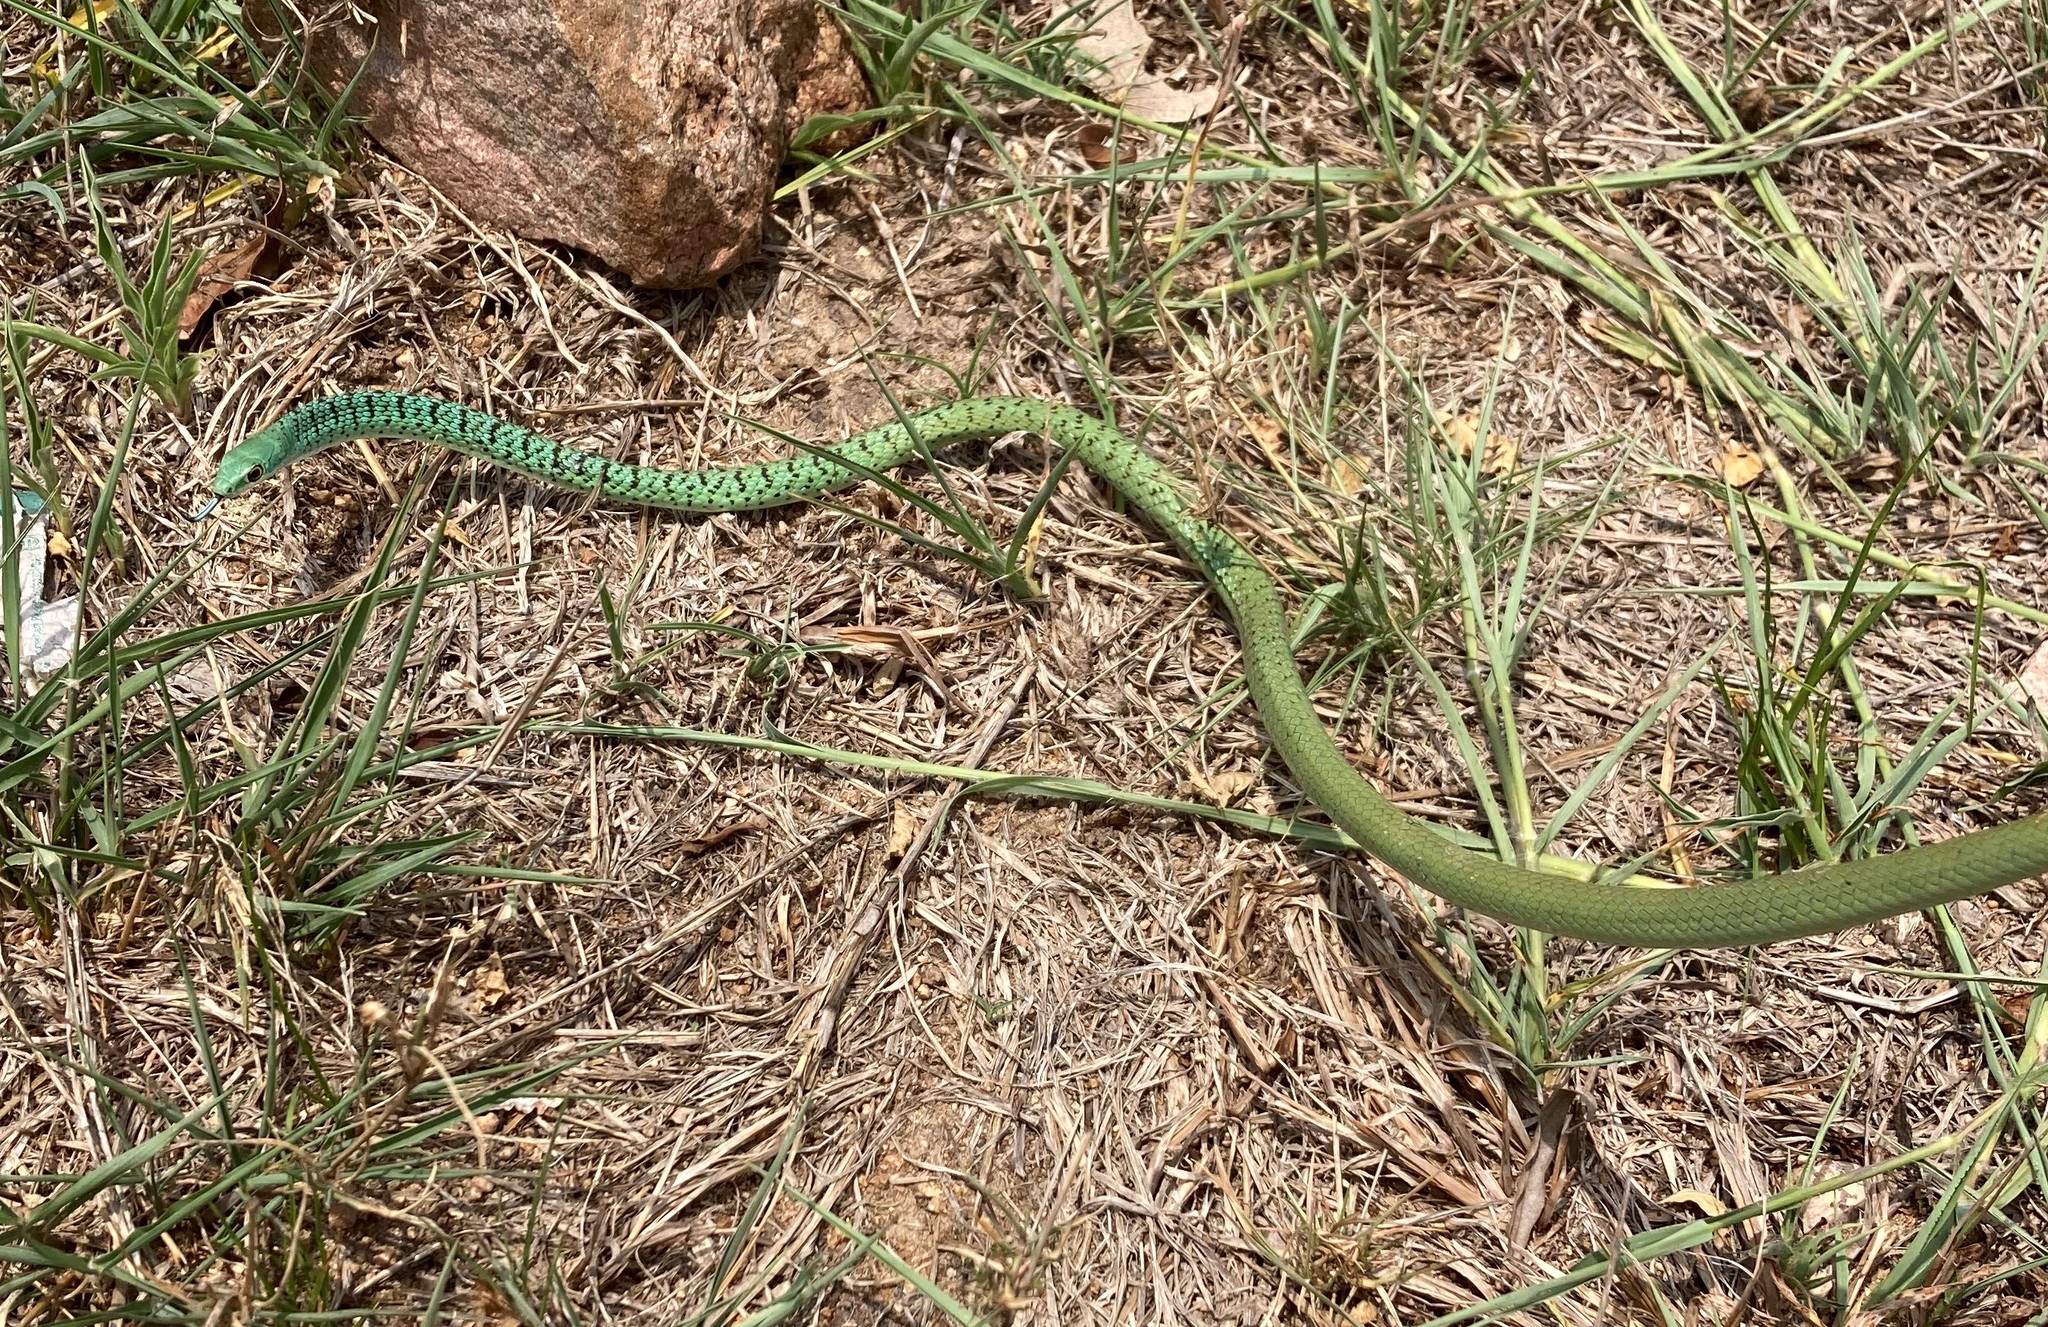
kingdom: Animalia
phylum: Chordata
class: Squamata
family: Colubridae
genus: Philothamnus
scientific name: Philothamnus semivariegatus
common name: Spotted bush snake
